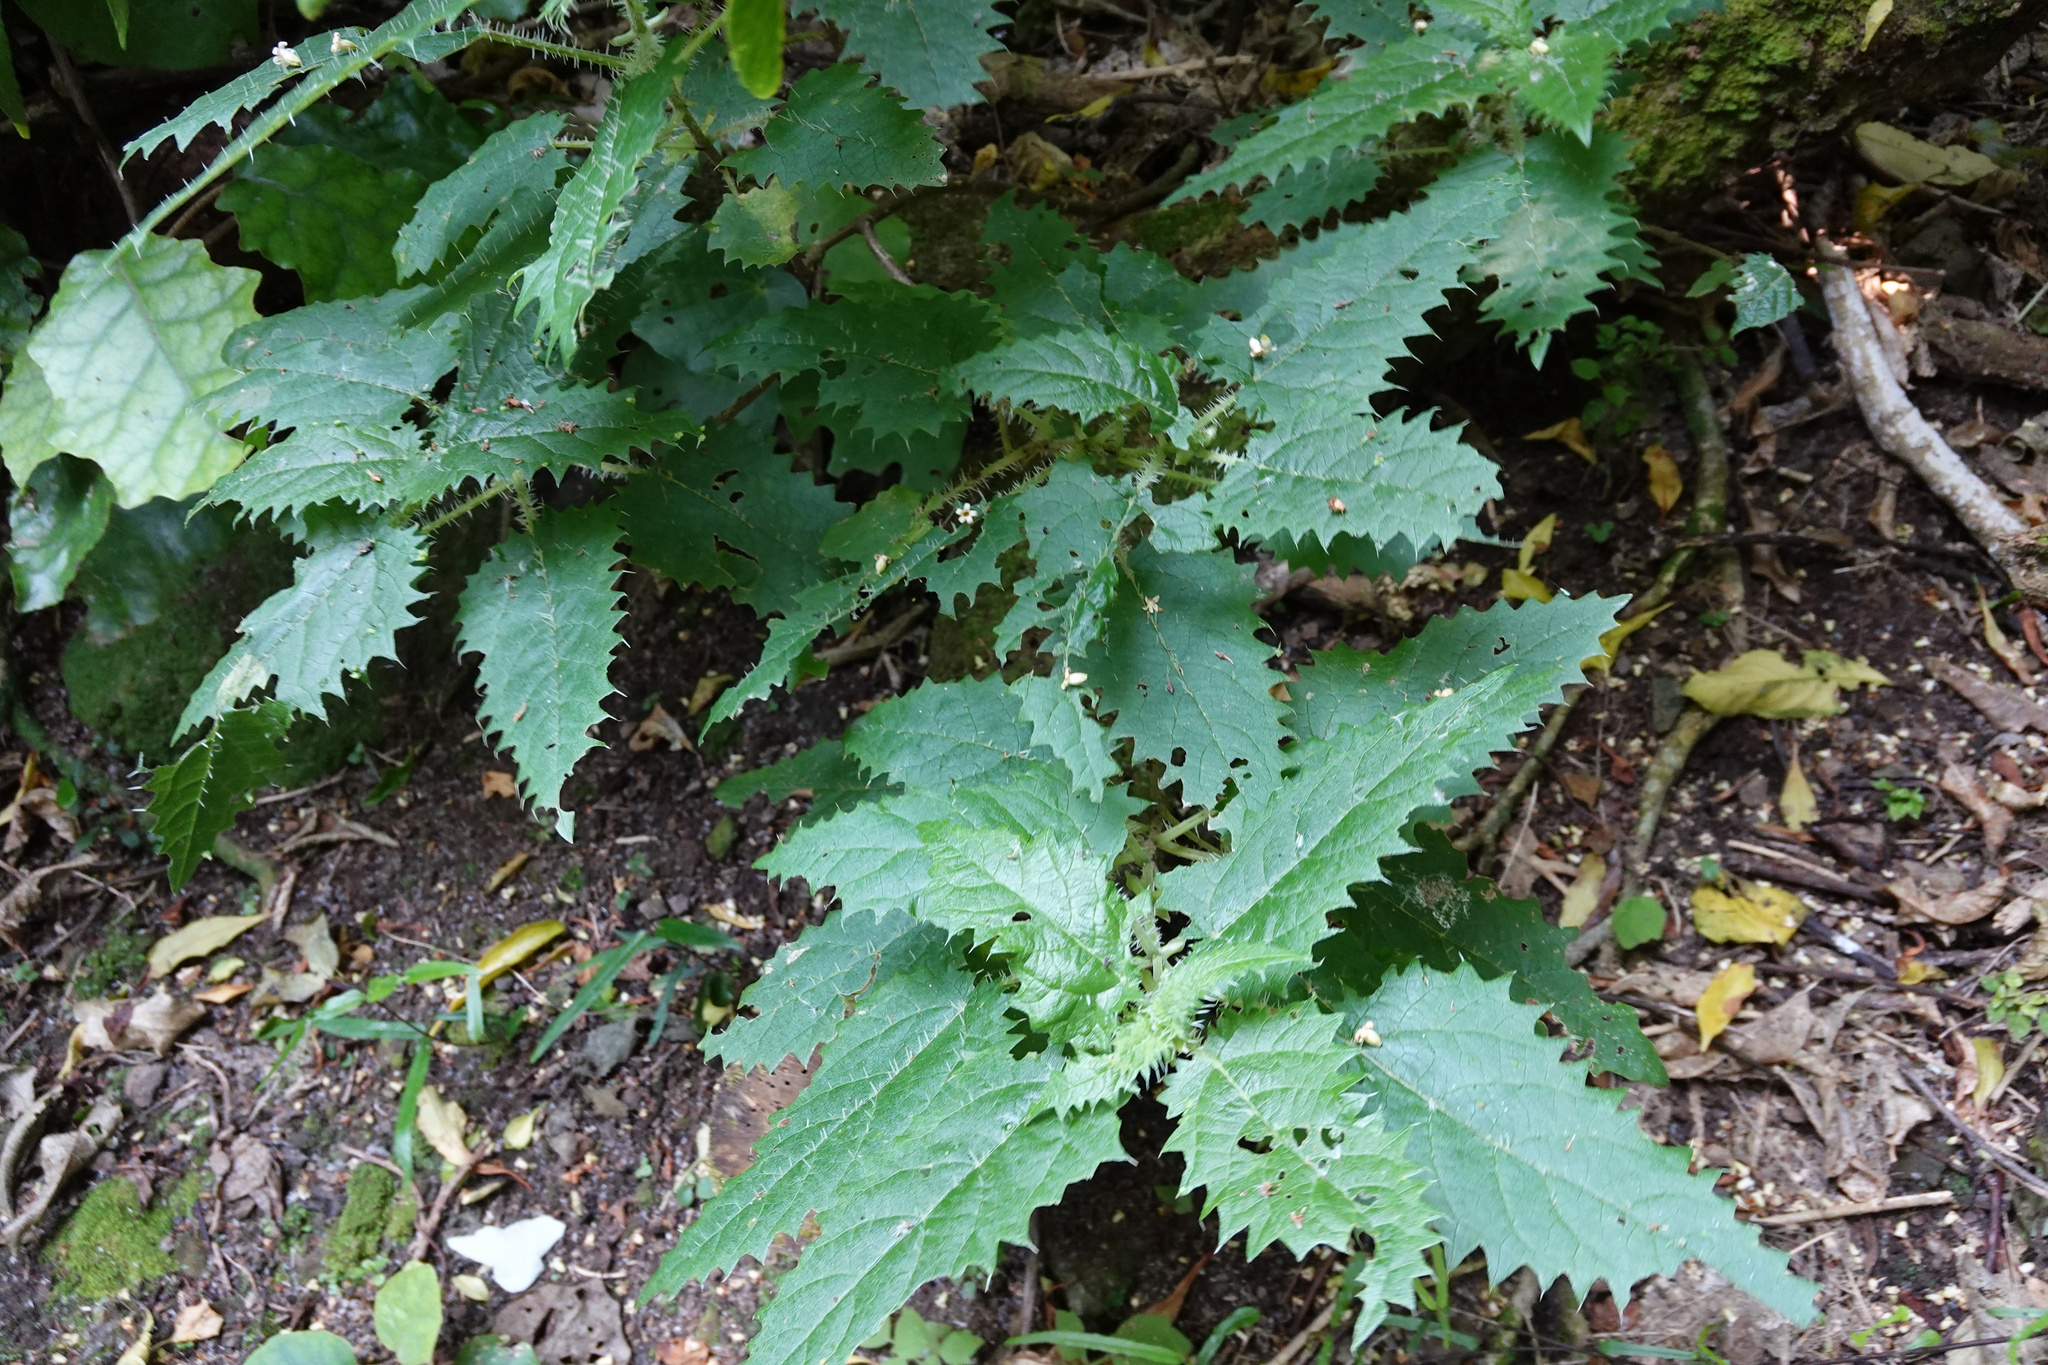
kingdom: Plantae
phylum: Tracheophyta
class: Magnoliopsida
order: Rosales
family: Urticaceae
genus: Urtica
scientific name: Urtica ferox
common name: Tree nettle
